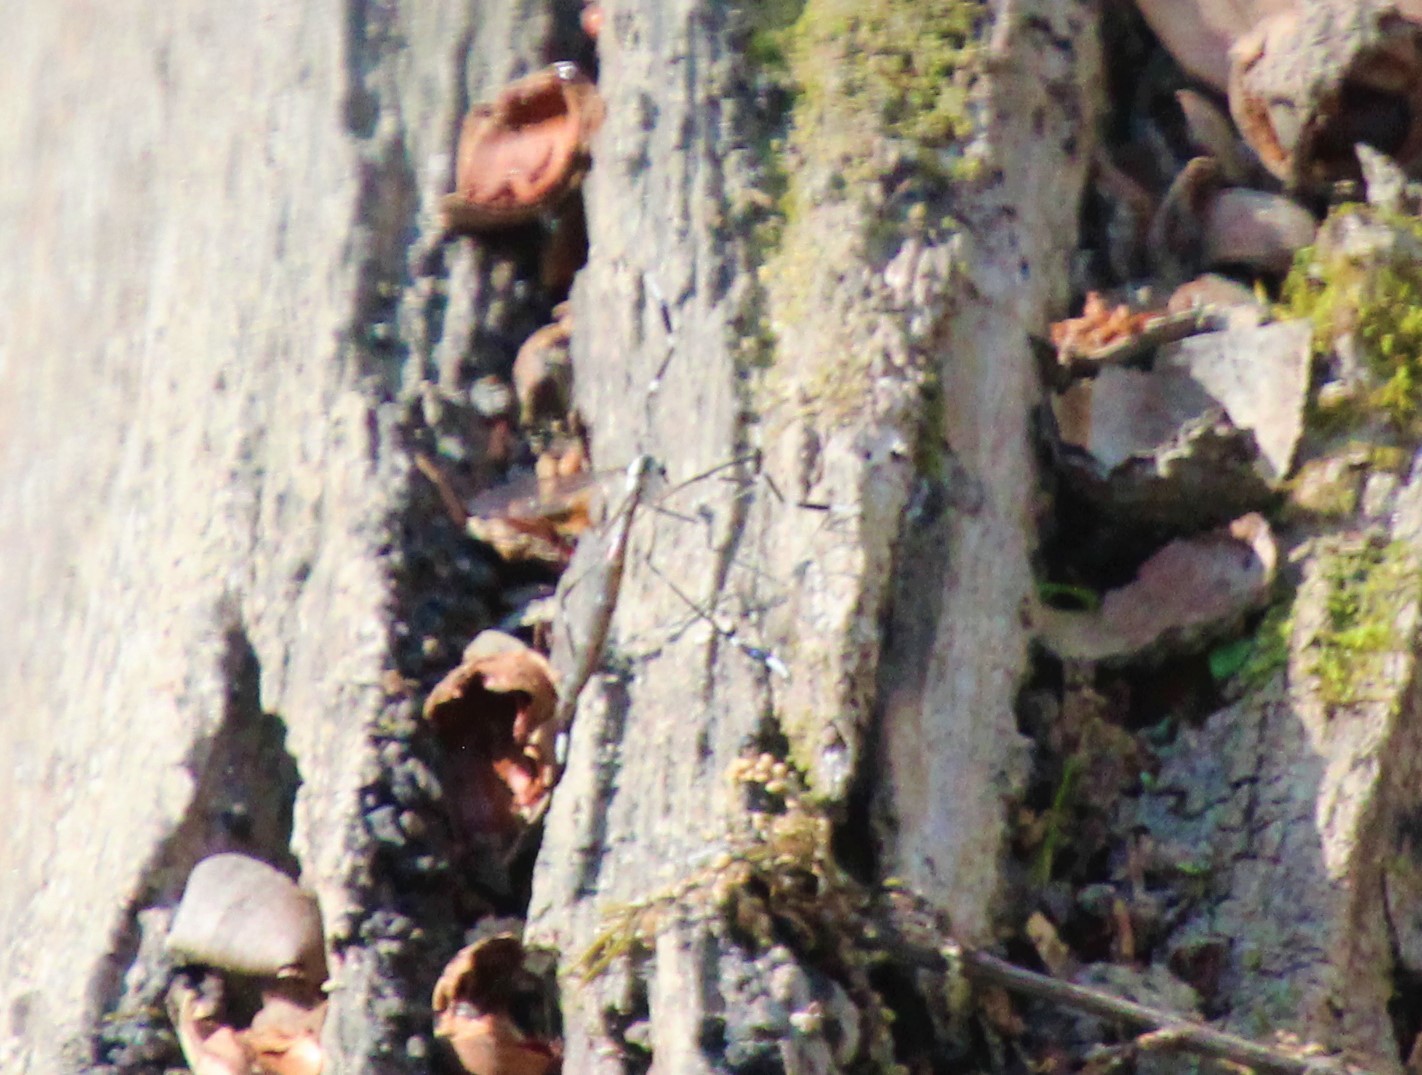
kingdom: Animalia
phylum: Arthropoda
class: Insecta
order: Diptera
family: Ptychopteridae
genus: Bittacomorpha
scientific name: Bittacomorpha clavipes
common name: Eastern phantom crane fly
